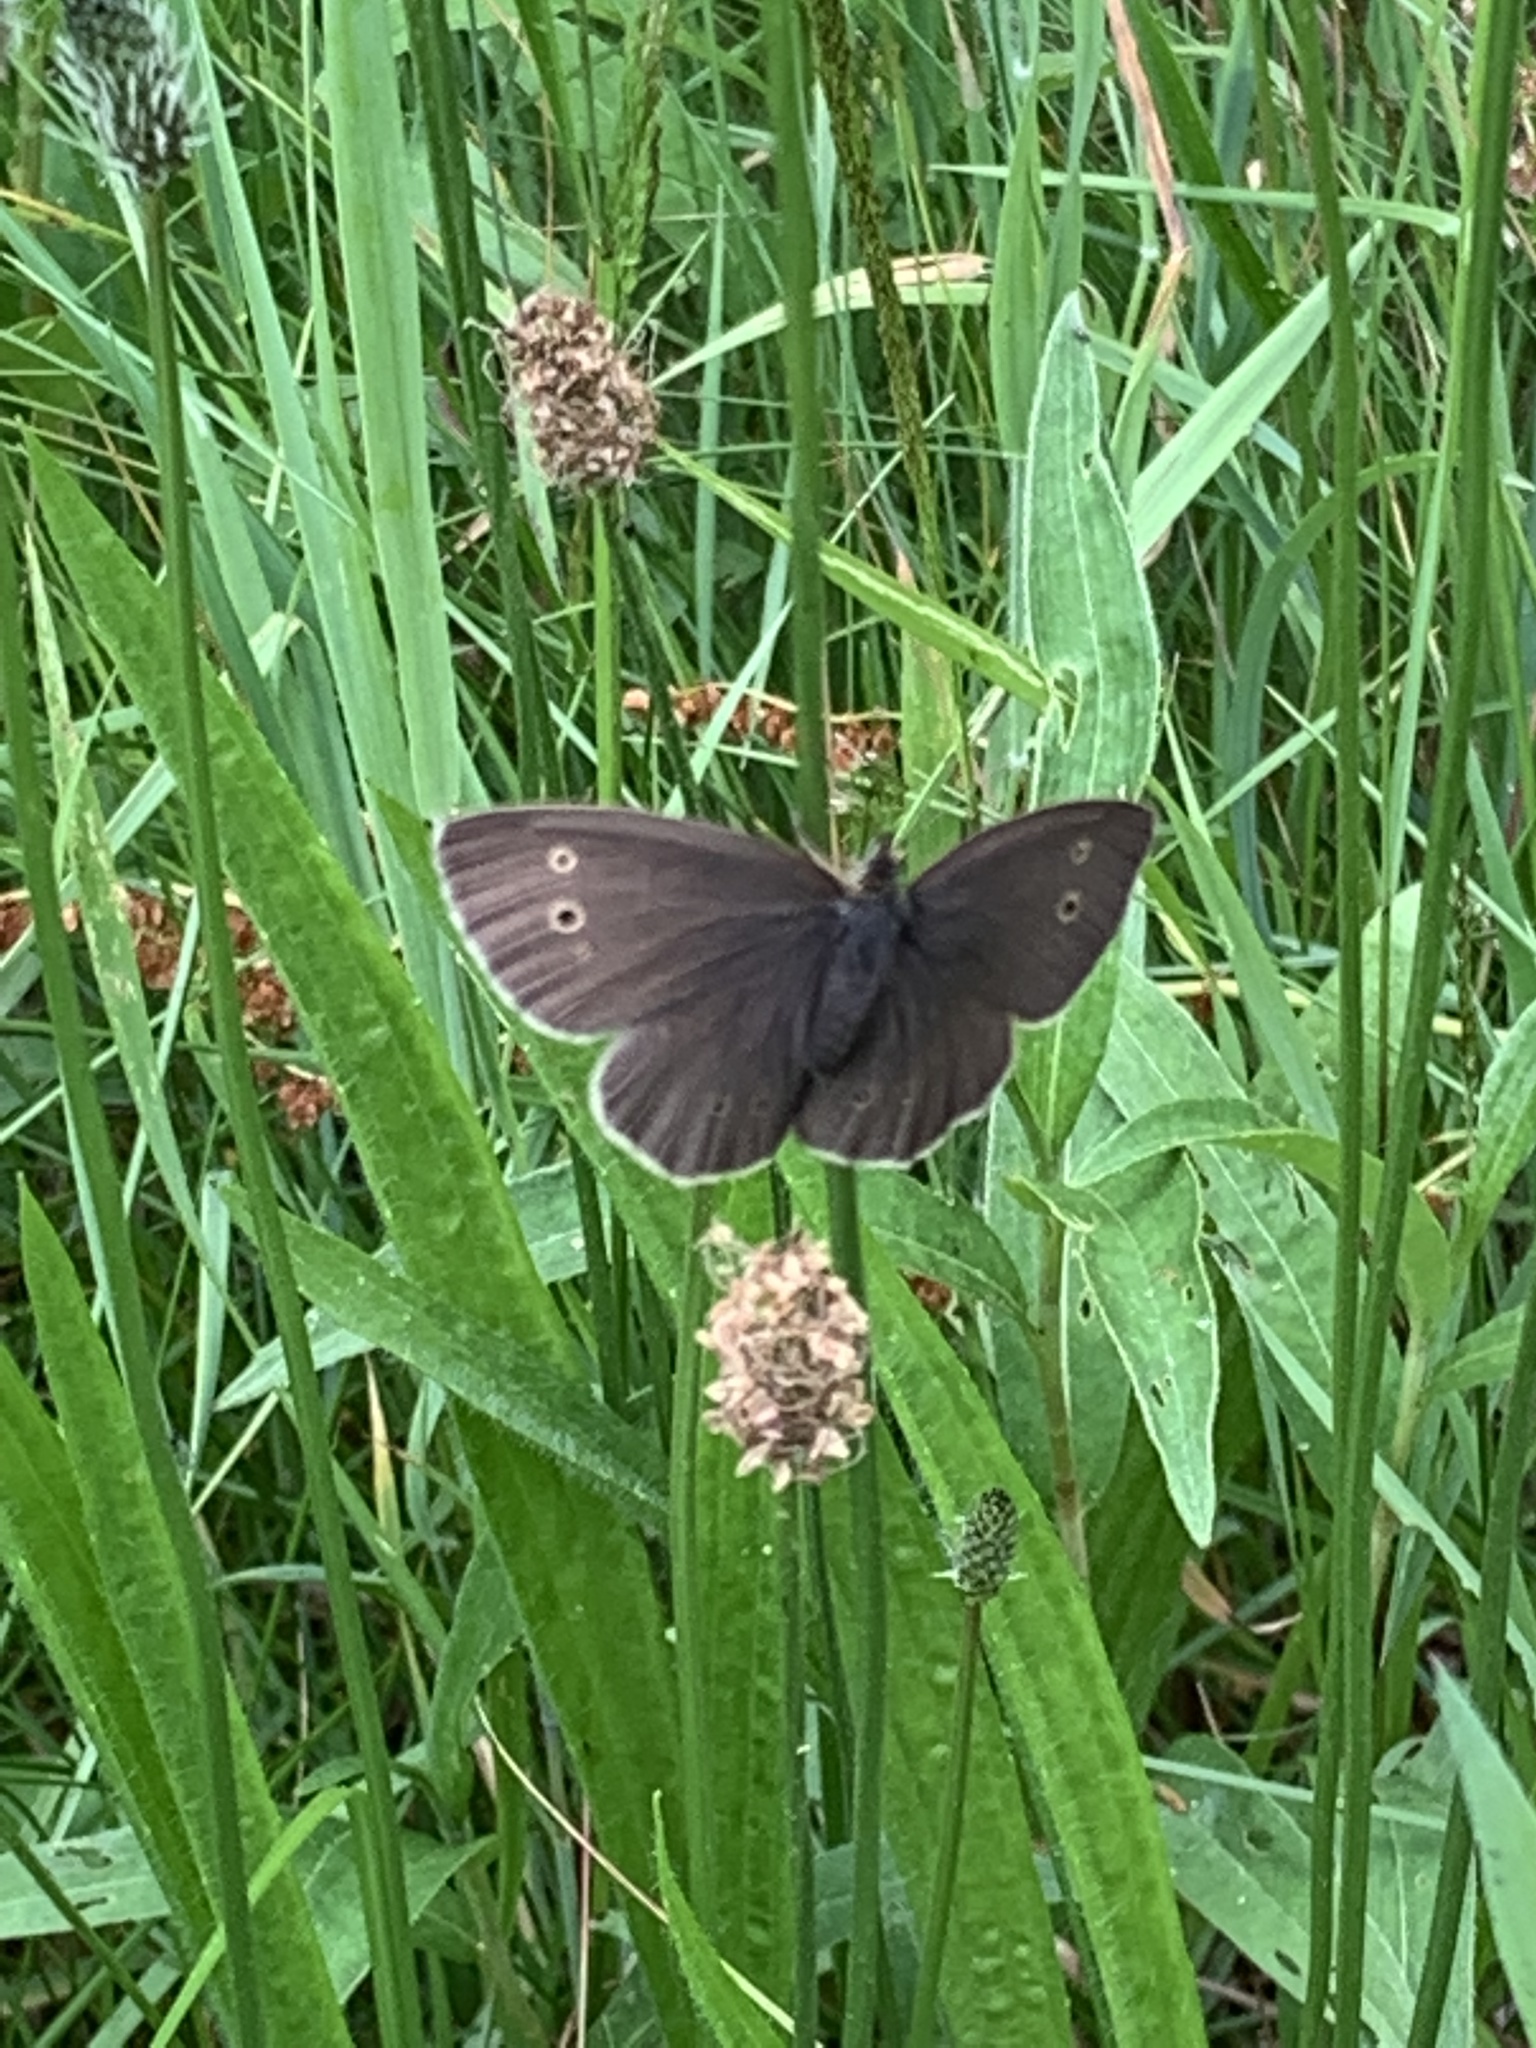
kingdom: Animalia
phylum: Arthropoda
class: Insecta
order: Lepidoptera
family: Nymphalidae
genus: Aphantopus
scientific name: Aphantopus hyperantus
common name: Ringlet
